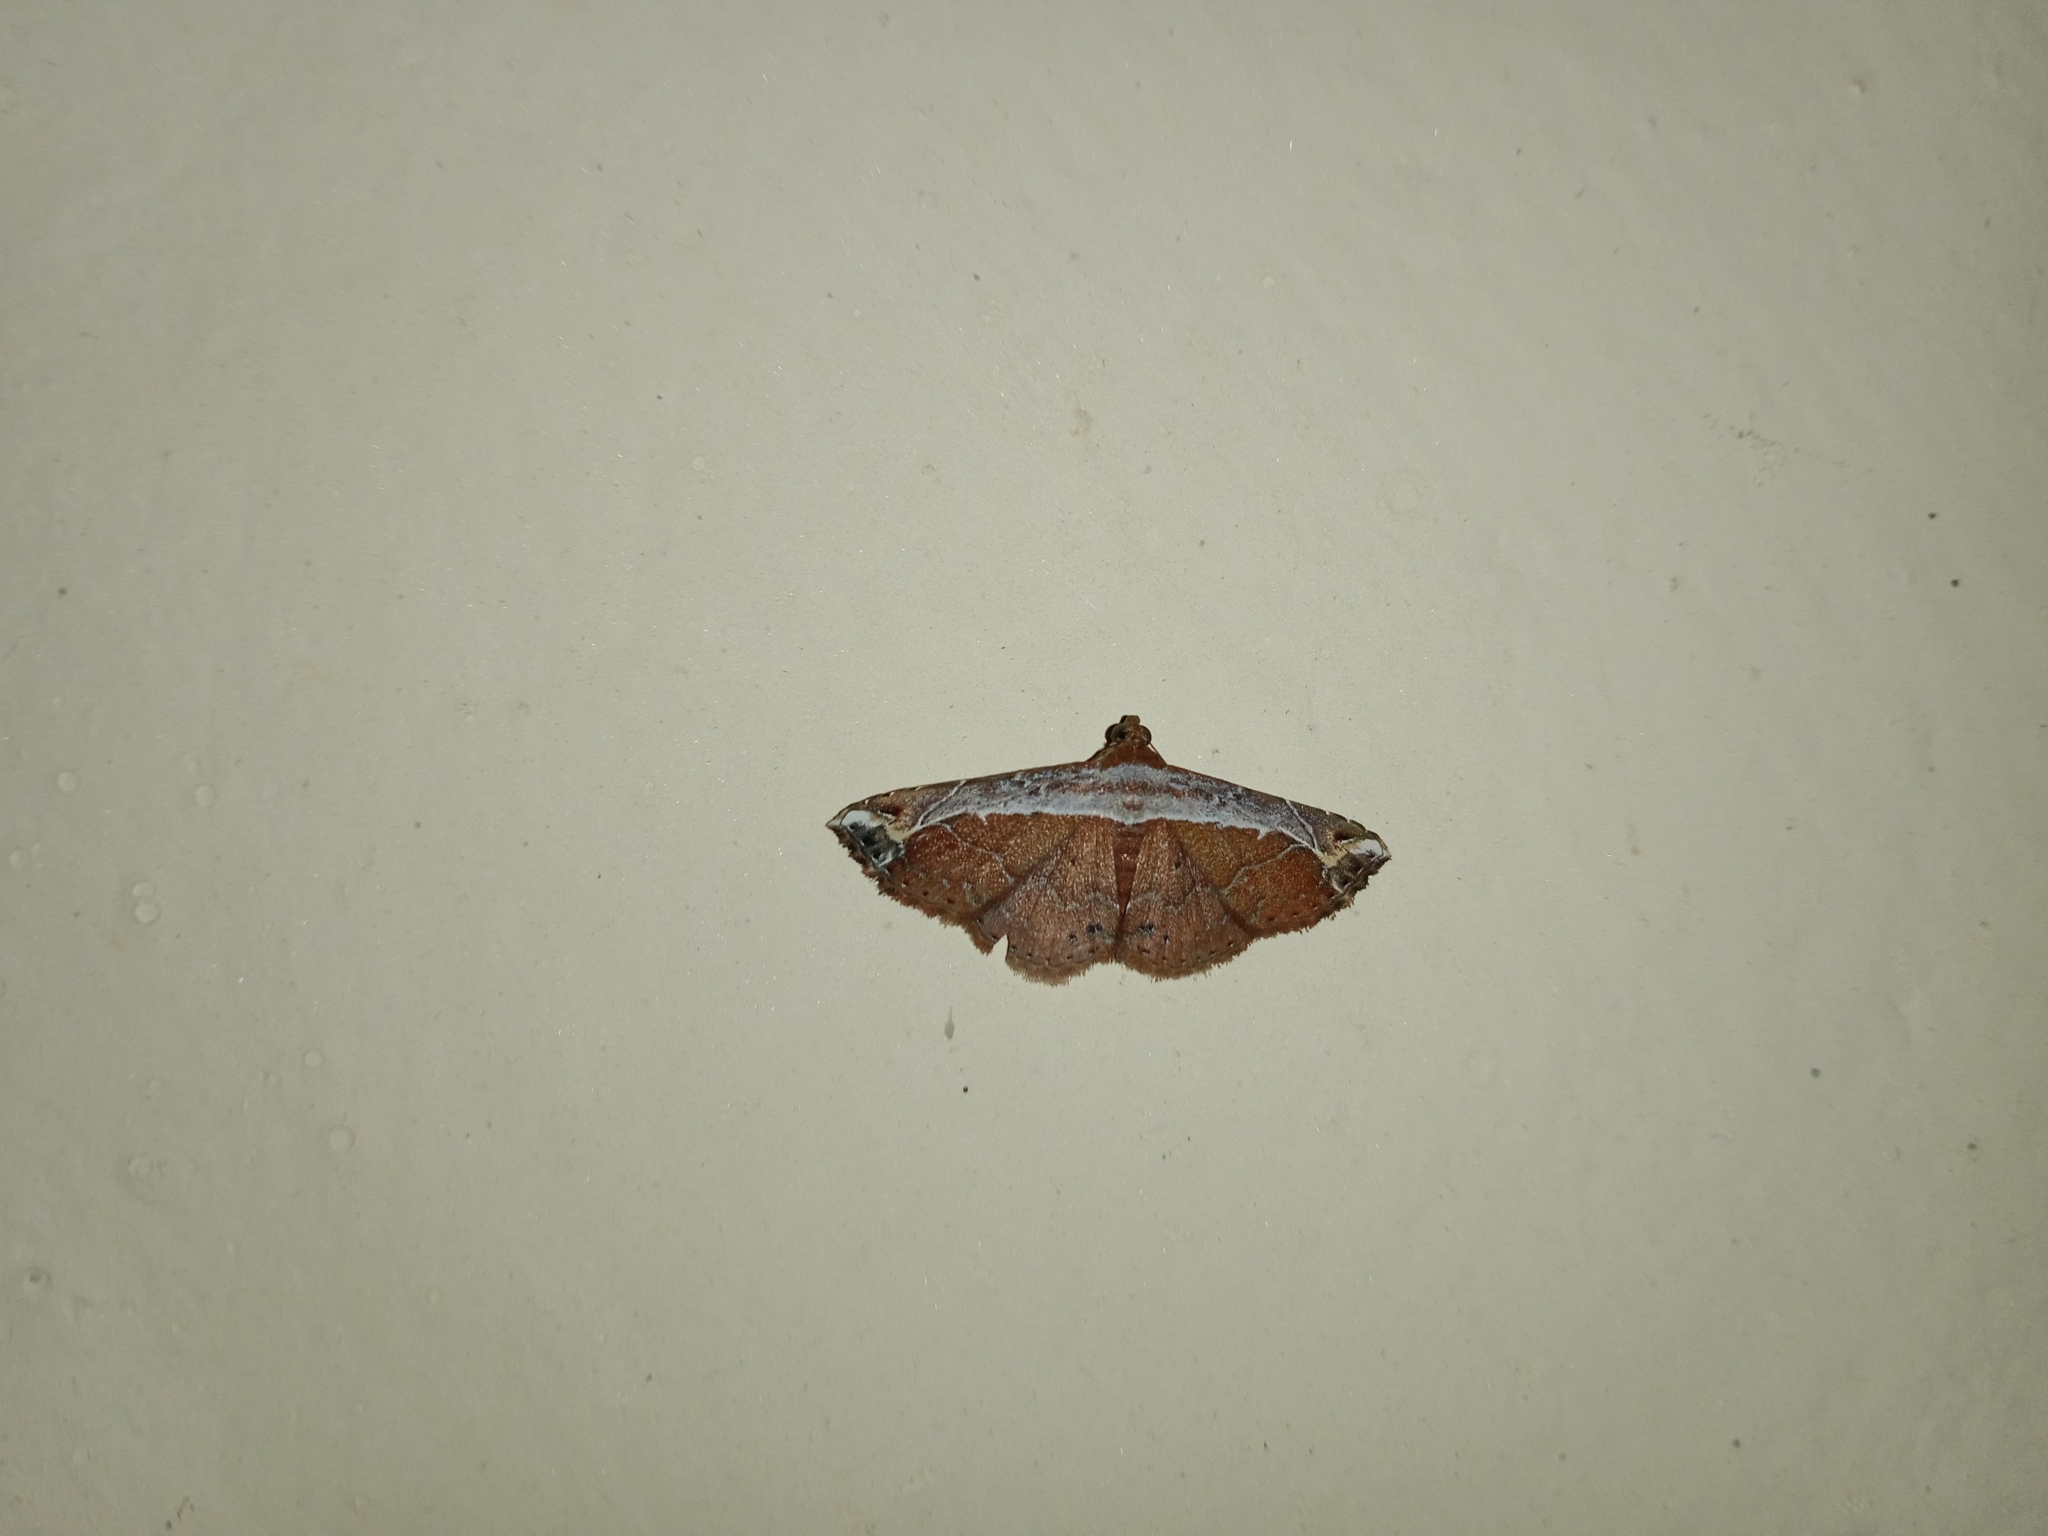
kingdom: Animalia
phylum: Arthropoda
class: Insecta
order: Lepidoptera
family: Erebidae
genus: Zurobata
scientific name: Zurobata vacillans
